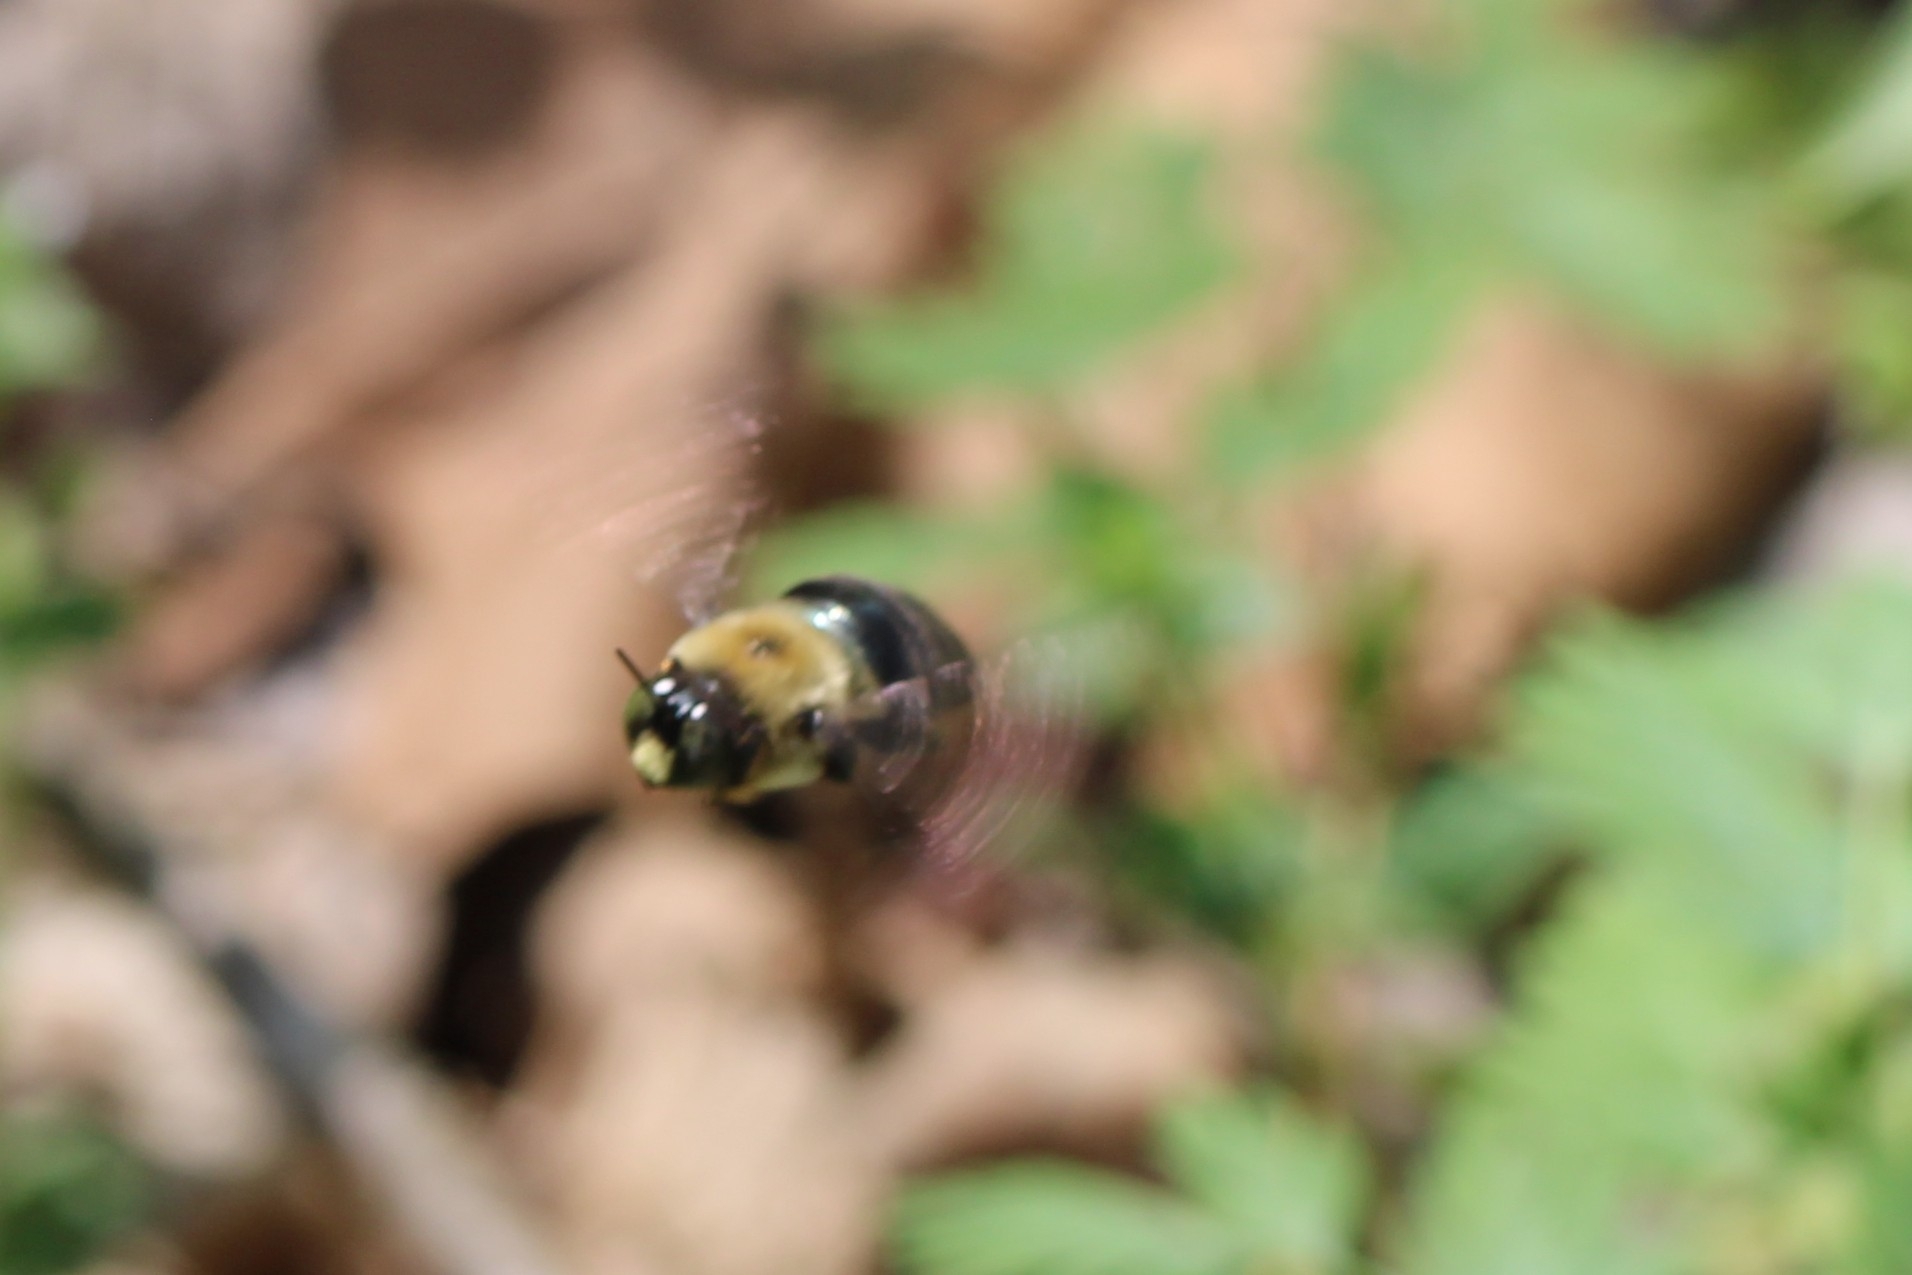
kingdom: Animalia
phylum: Arthropoda
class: Insecta
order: Hymenoptera
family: Apidae
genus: Xylocopa
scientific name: Xylocopa virginica
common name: Carpenter bee
